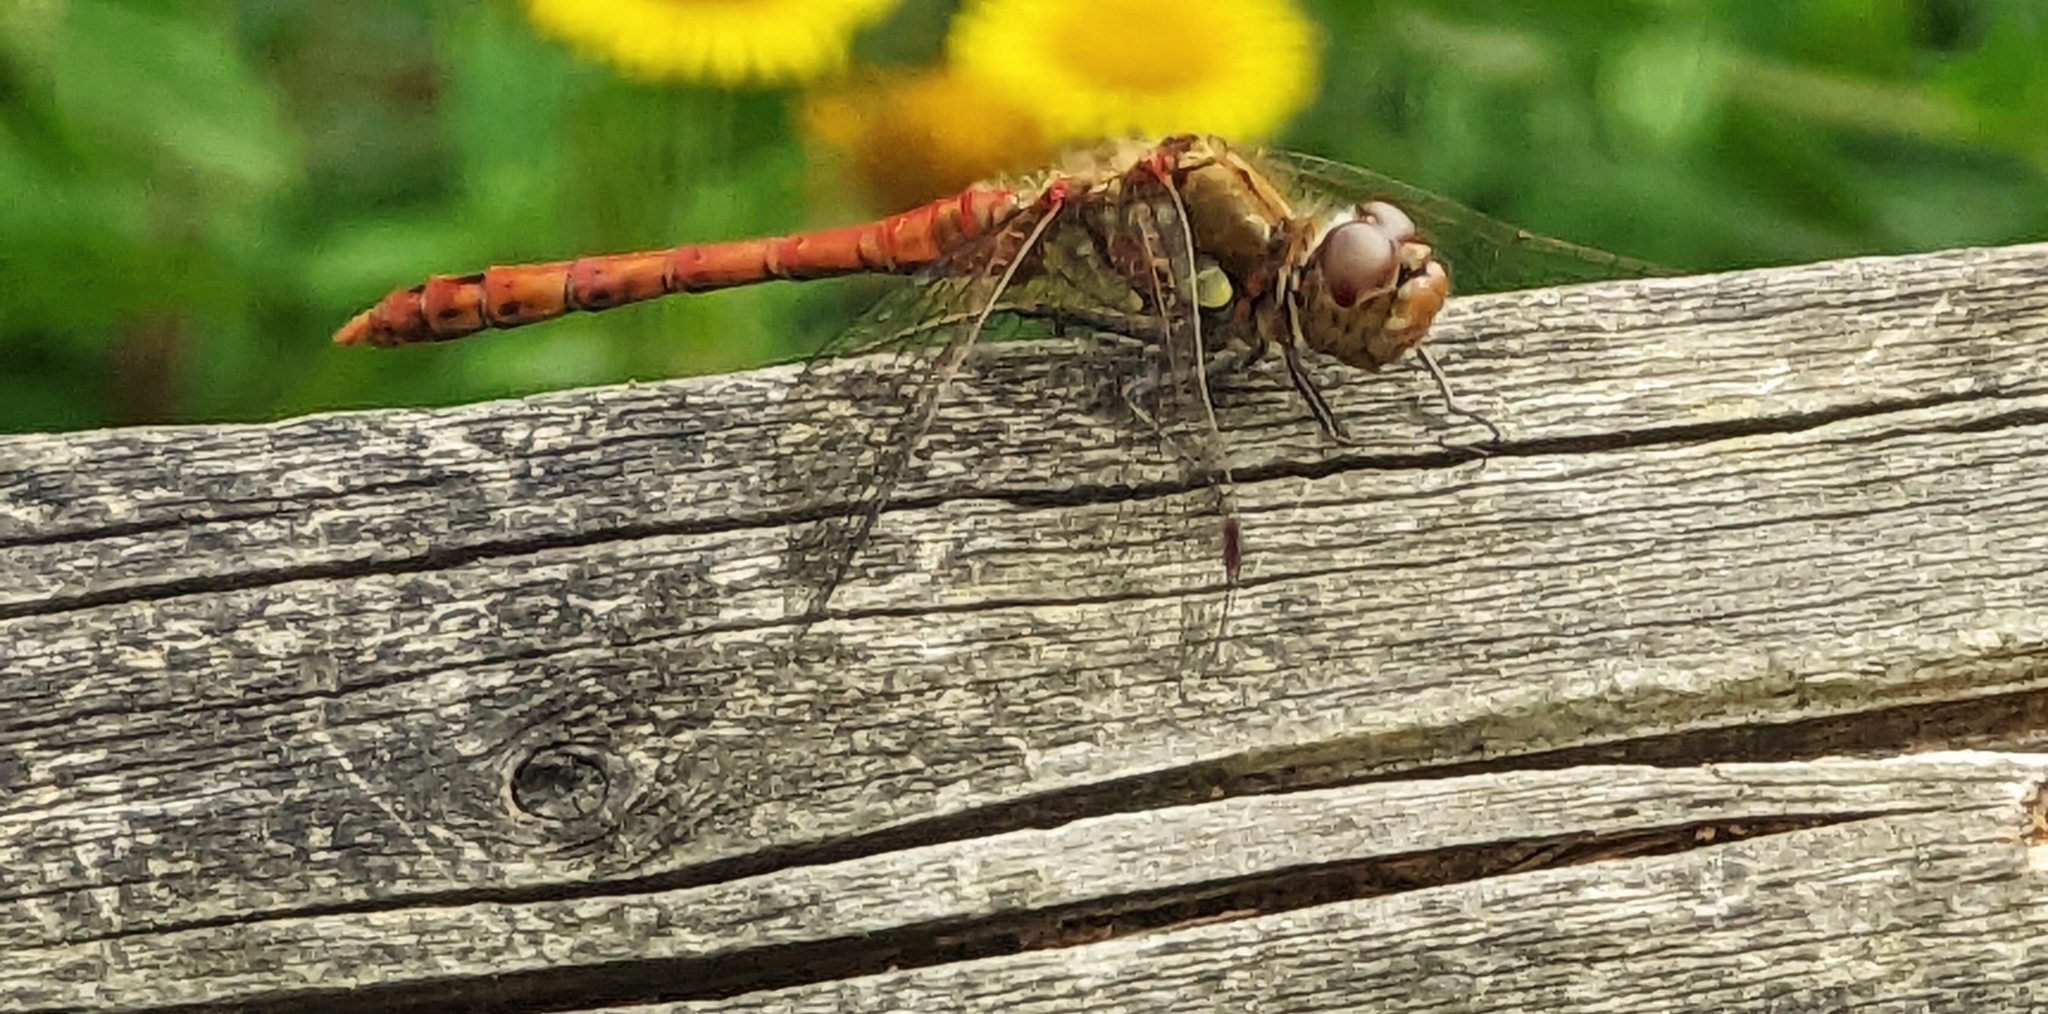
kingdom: Animalia
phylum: Arthropoda
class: Insecta
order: Odonata
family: Libellulidae
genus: Sympetrum
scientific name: Sympetrum striolatum
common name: Common darter
